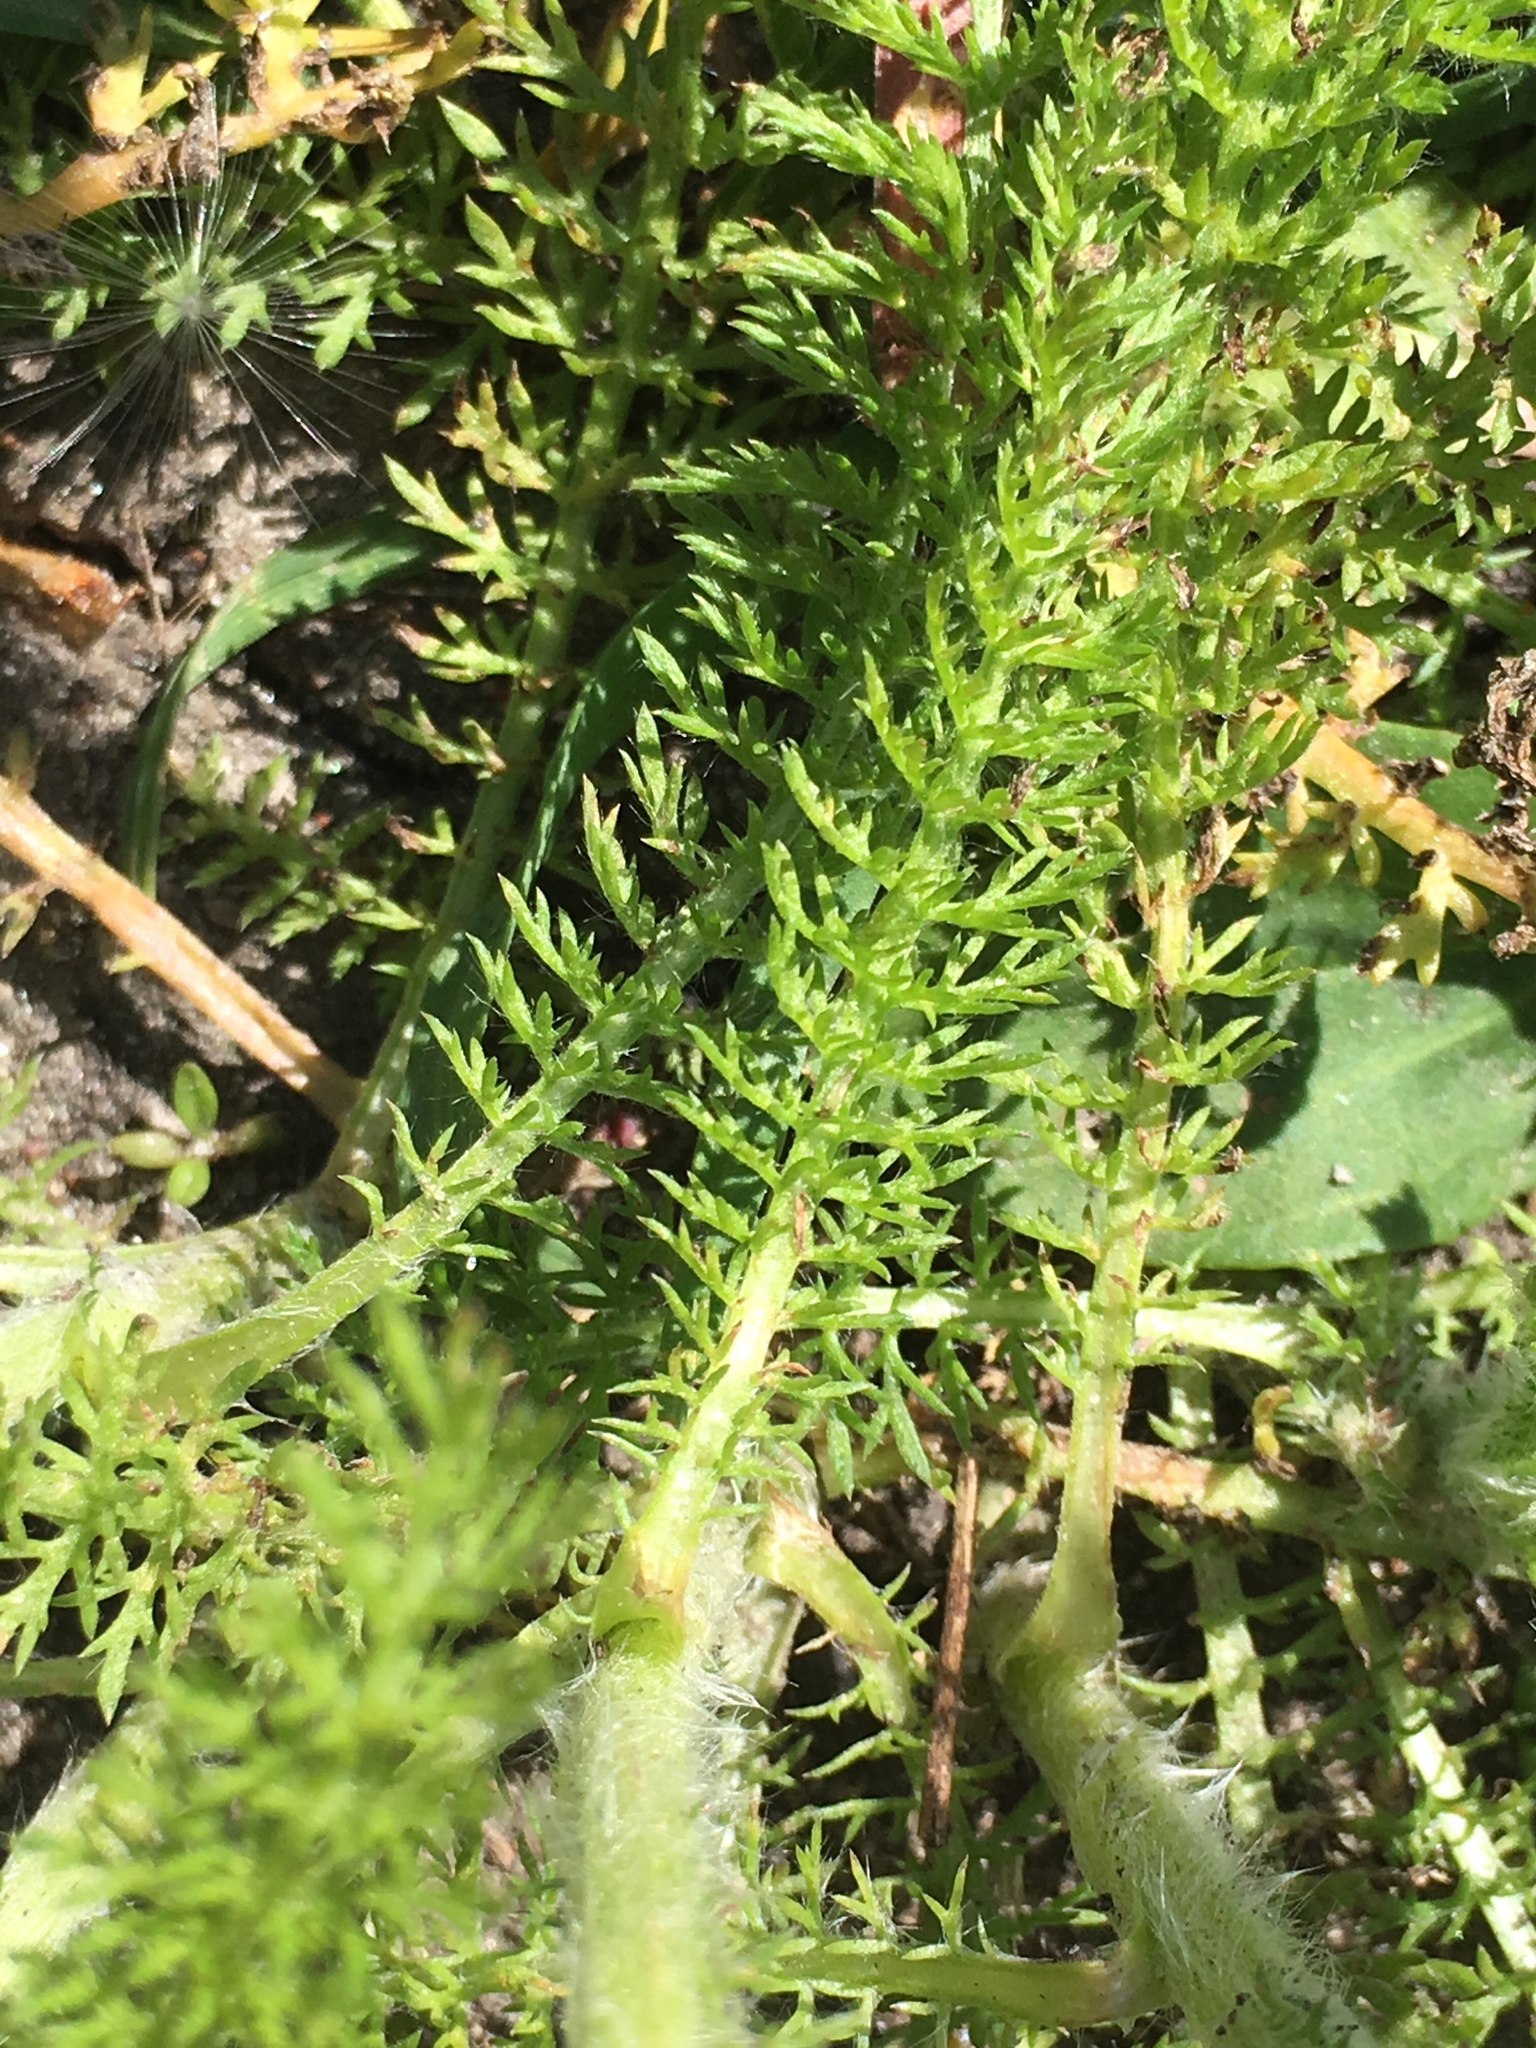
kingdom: Plantae
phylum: Tracheophyta
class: Magnoliopsida
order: Asterales
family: Asteraceae
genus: Achillea
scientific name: Achillea millefolium
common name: Yarrow
